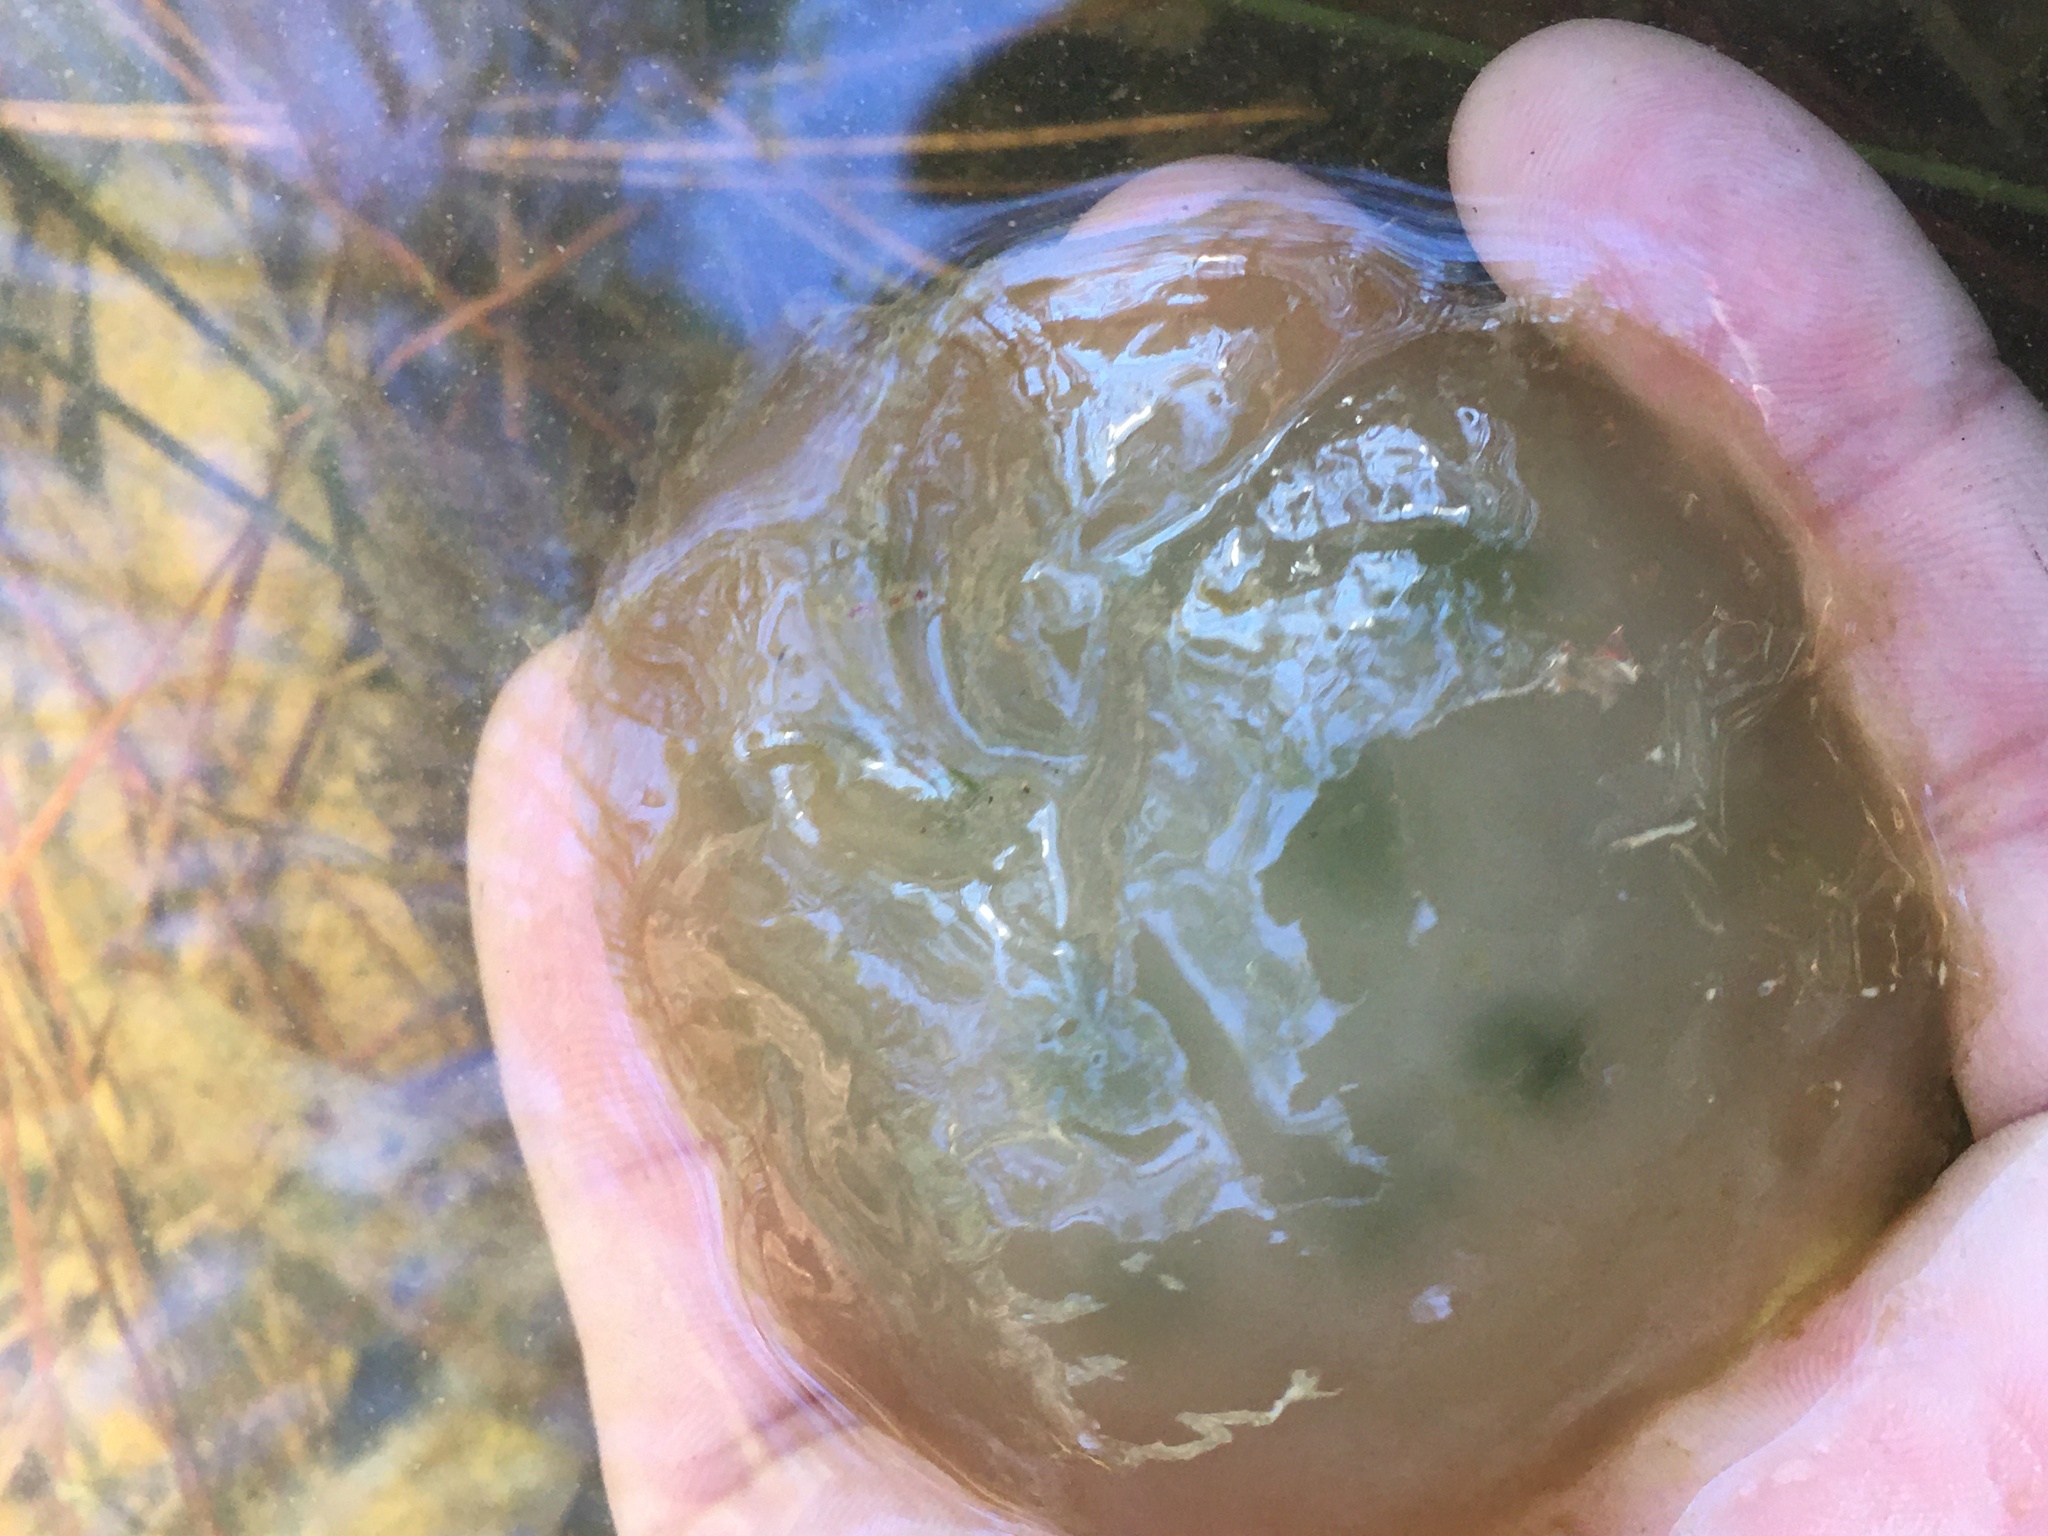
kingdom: Animalia
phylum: Chordata
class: Amphibia
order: Caudata
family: Ambystomatidae
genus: Ambystoma
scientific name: Ambystoma maculatum
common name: Spotted salamander
